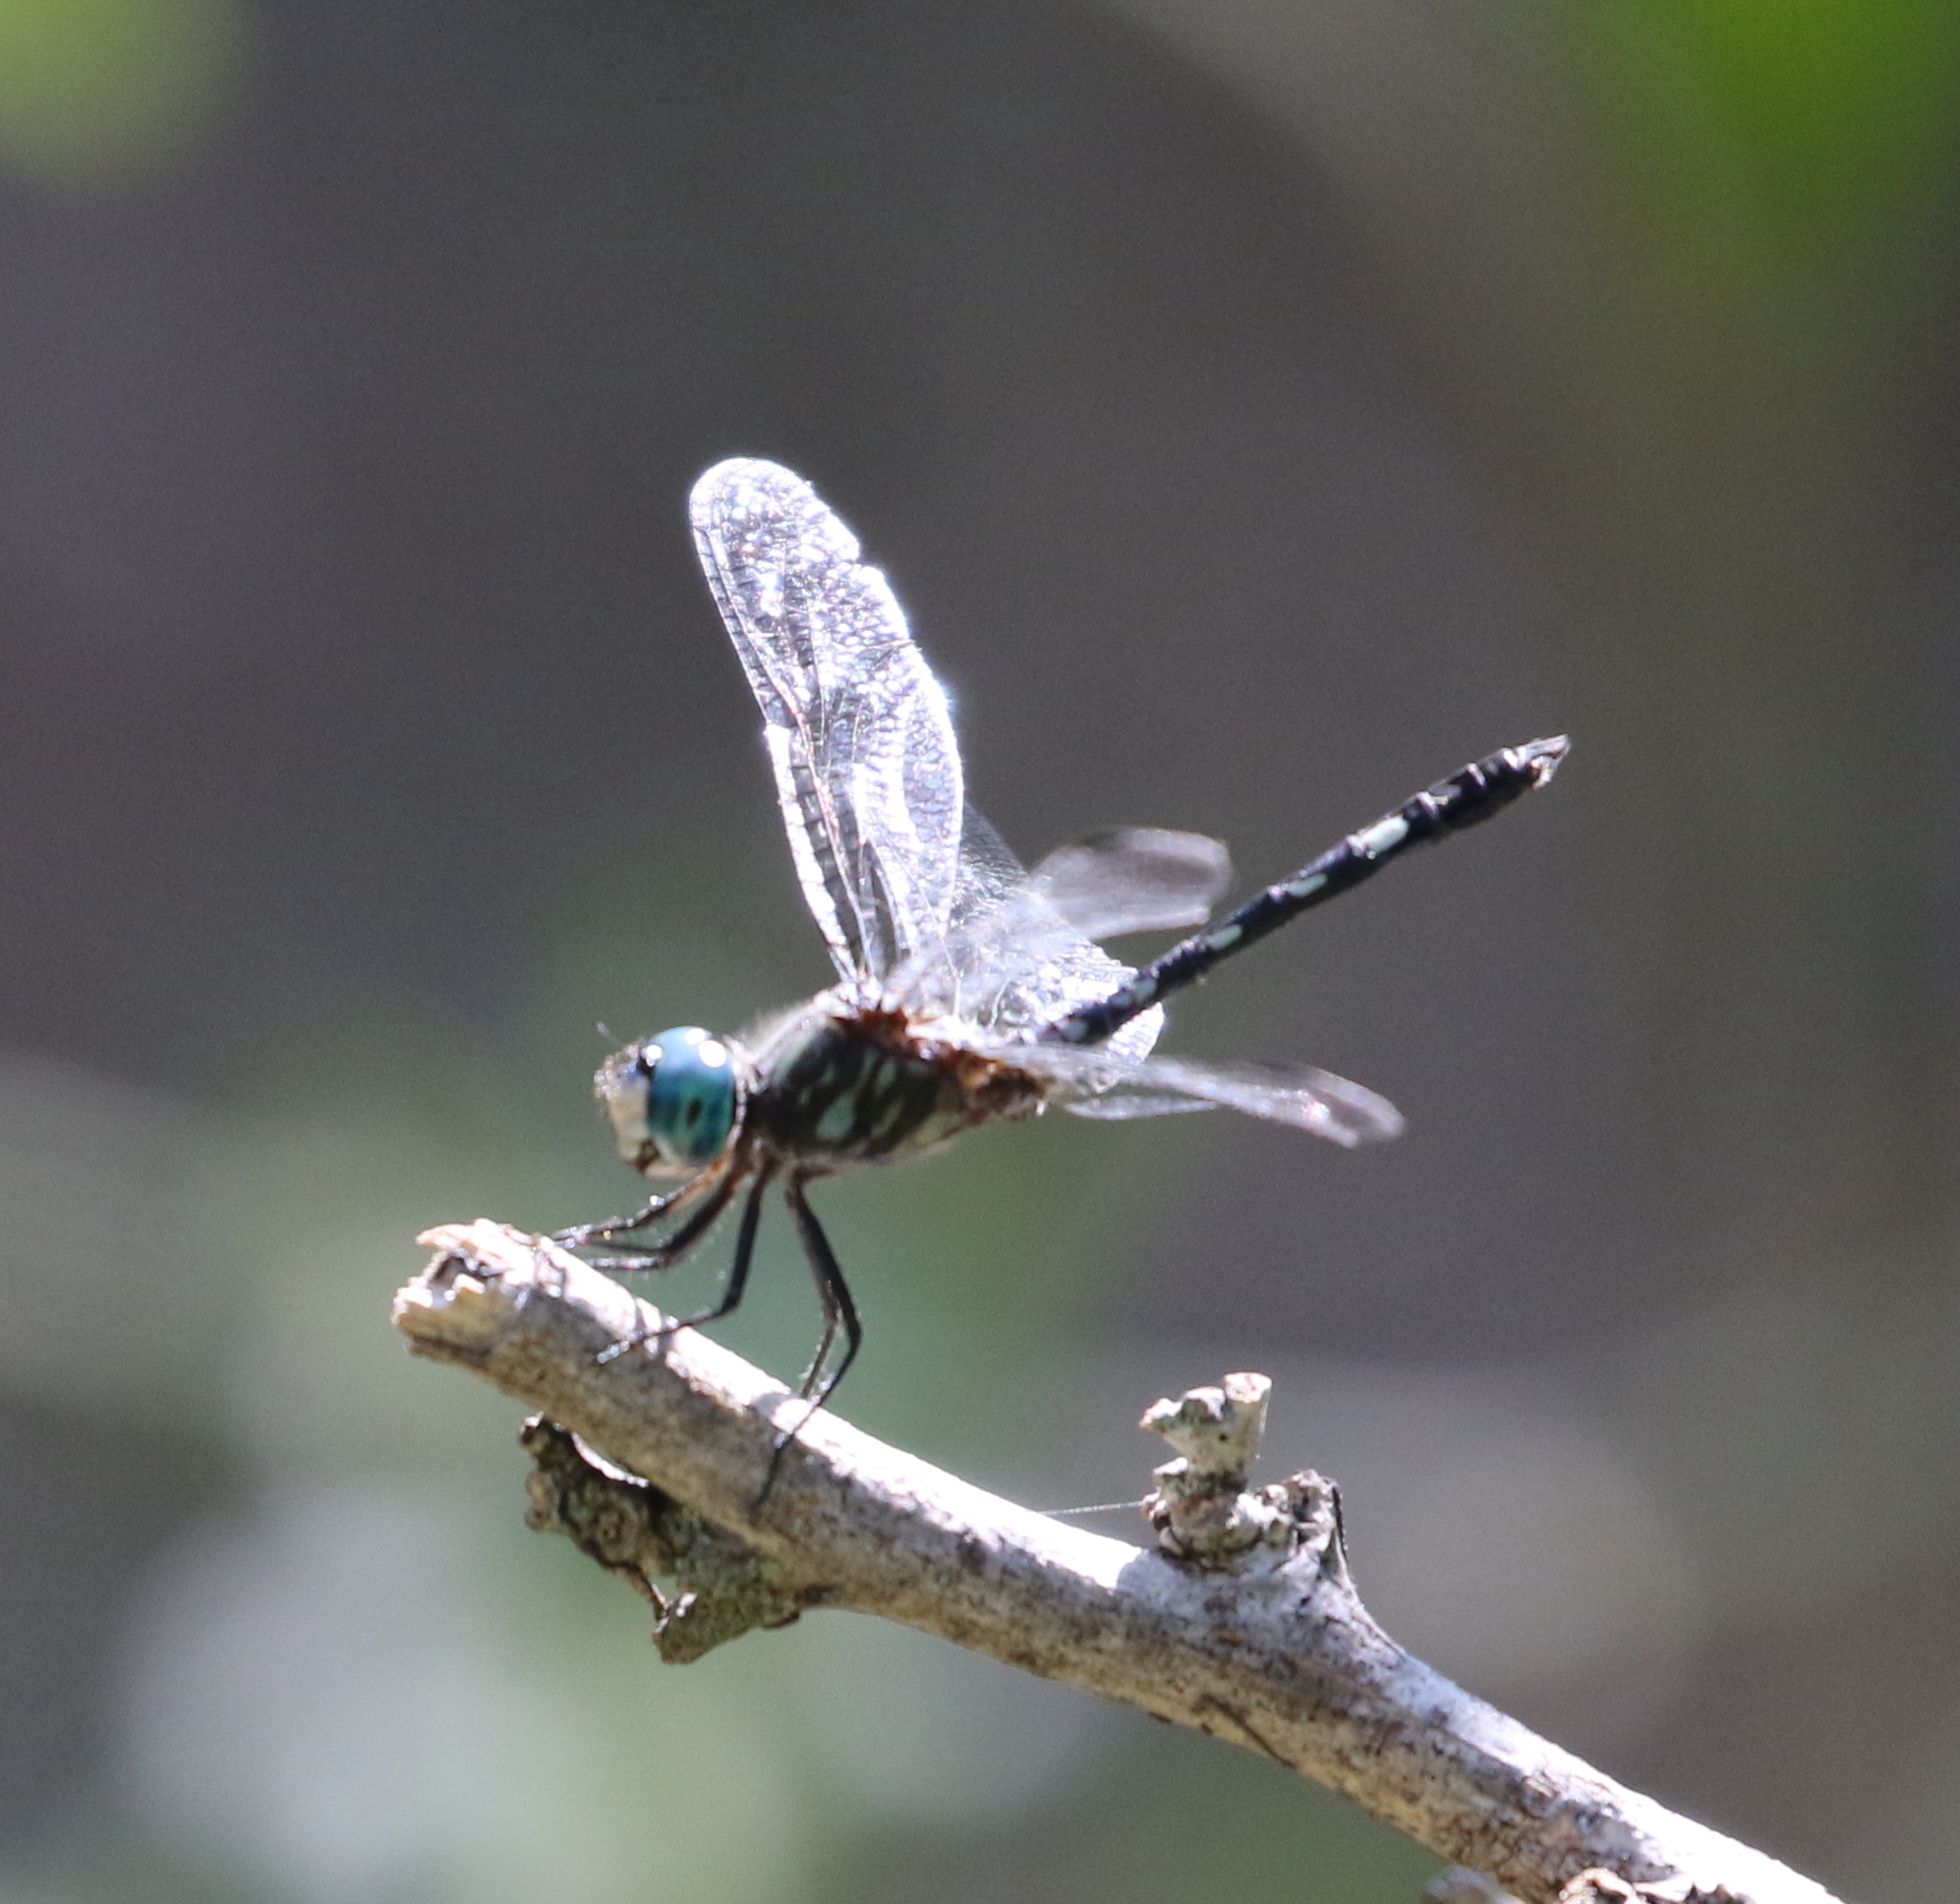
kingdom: Animalia
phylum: Arthropoda
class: Insecta
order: Odonata
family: Libellulidae
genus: Micrathyria
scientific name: Micrathyria hagenii
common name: Thornbush dasher
